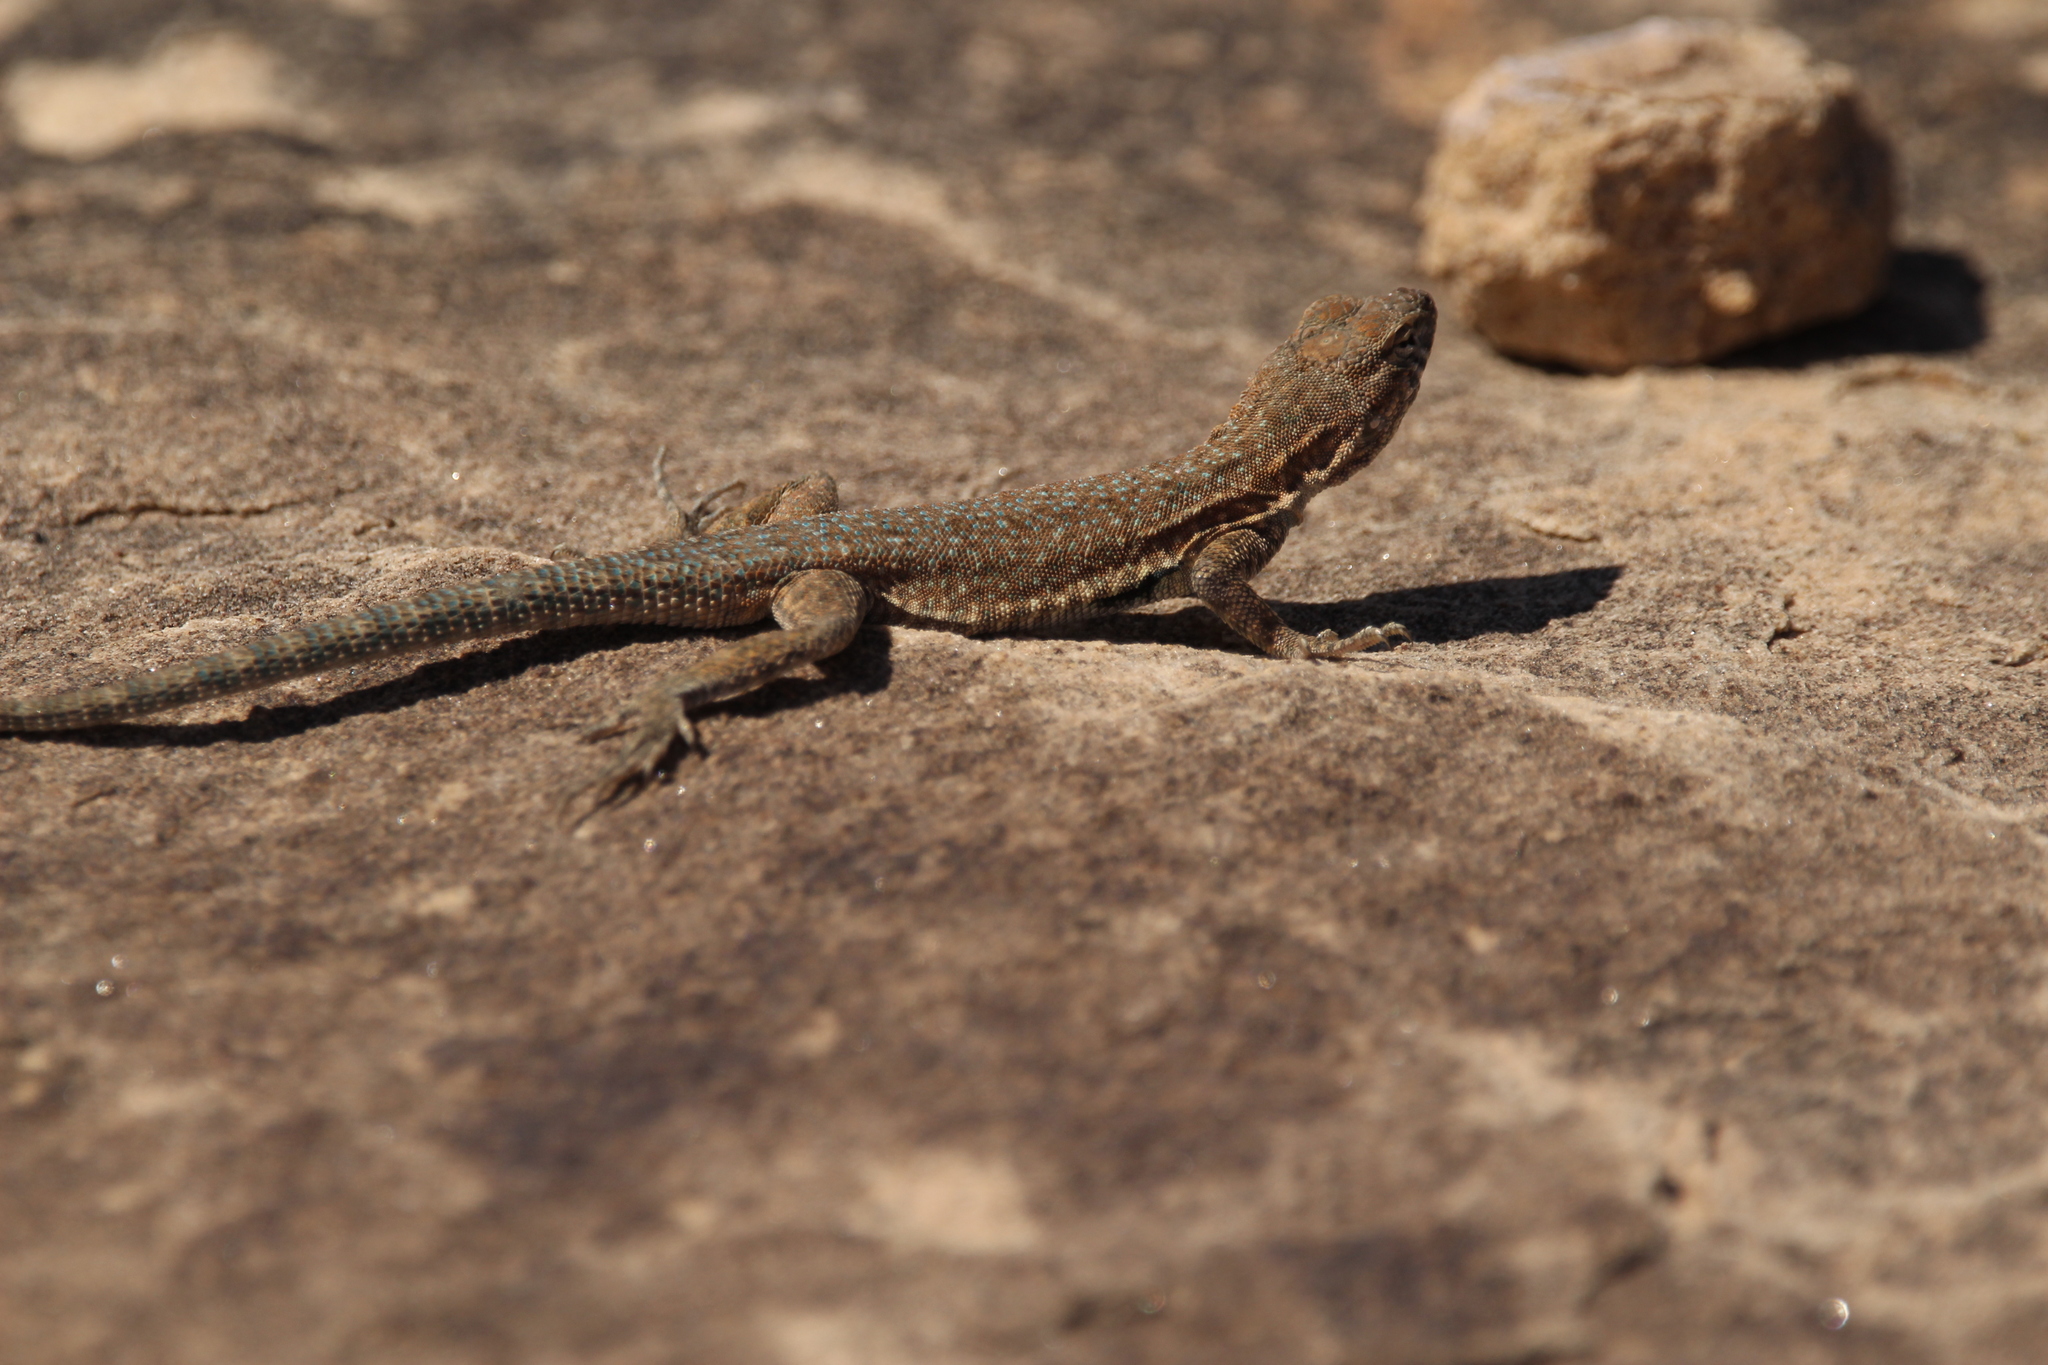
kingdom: Animalia
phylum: Chordata
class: Squamata
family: Phrynosomatidae
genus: Uta
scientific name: Uta stansburiana
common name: Side-blotched lizard
